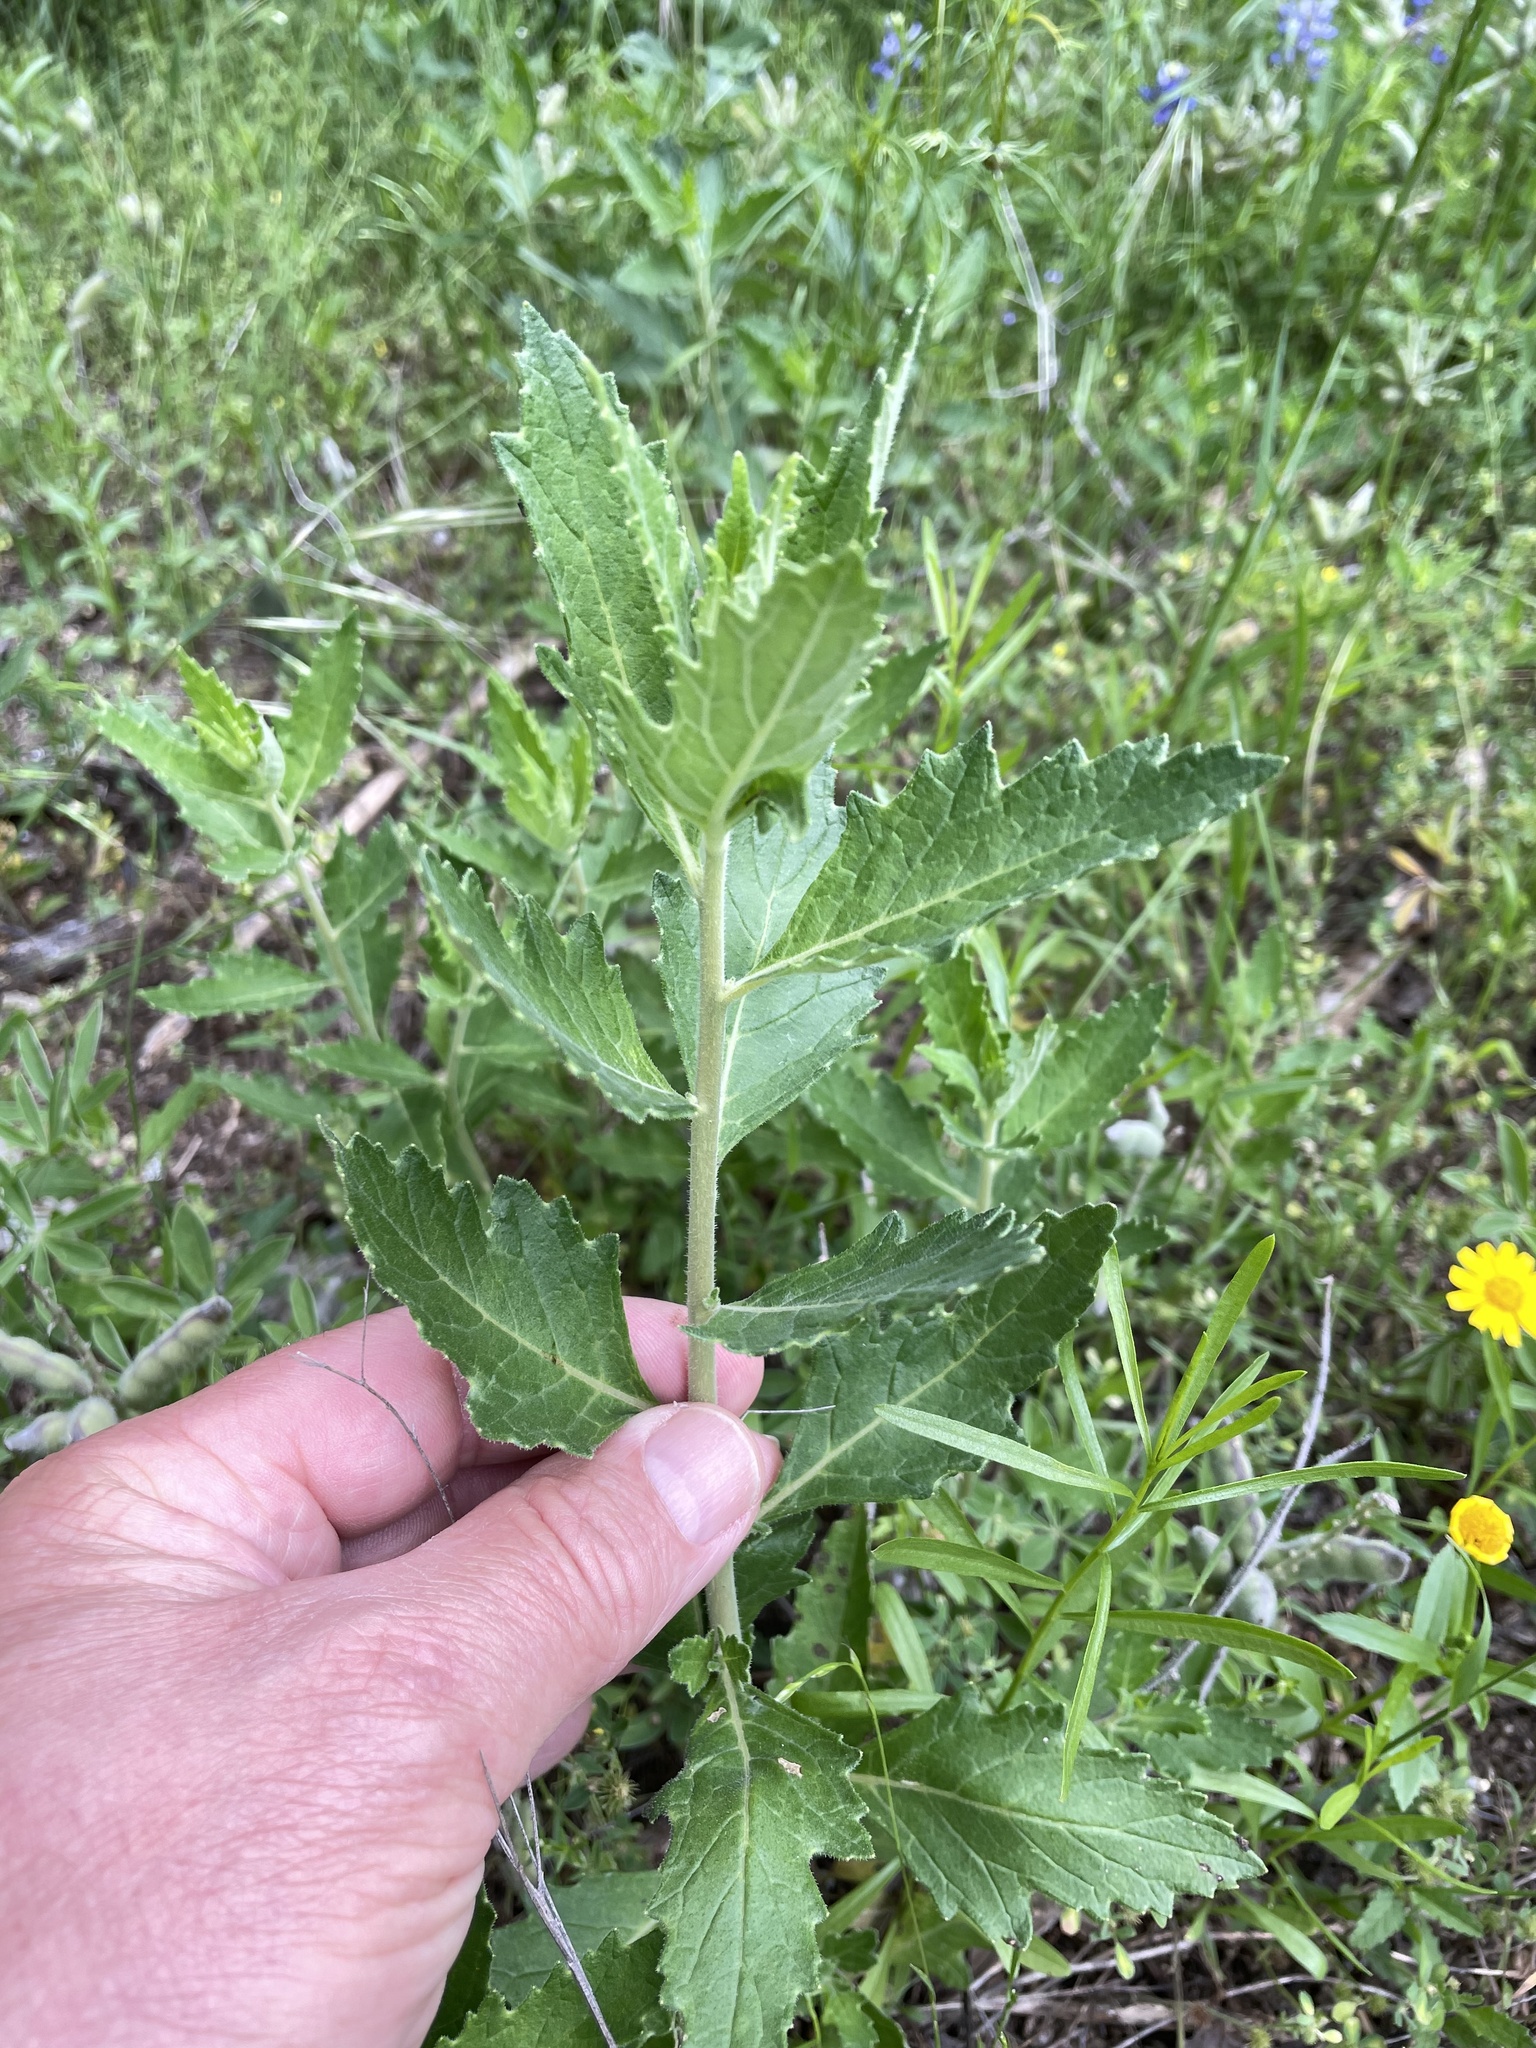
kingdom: Plantae
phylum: Tracheophyta
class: Magnoliopsida
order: Cornales
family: Loasaceae
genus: Mentzelia
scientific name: Mentzelia oligosperma
